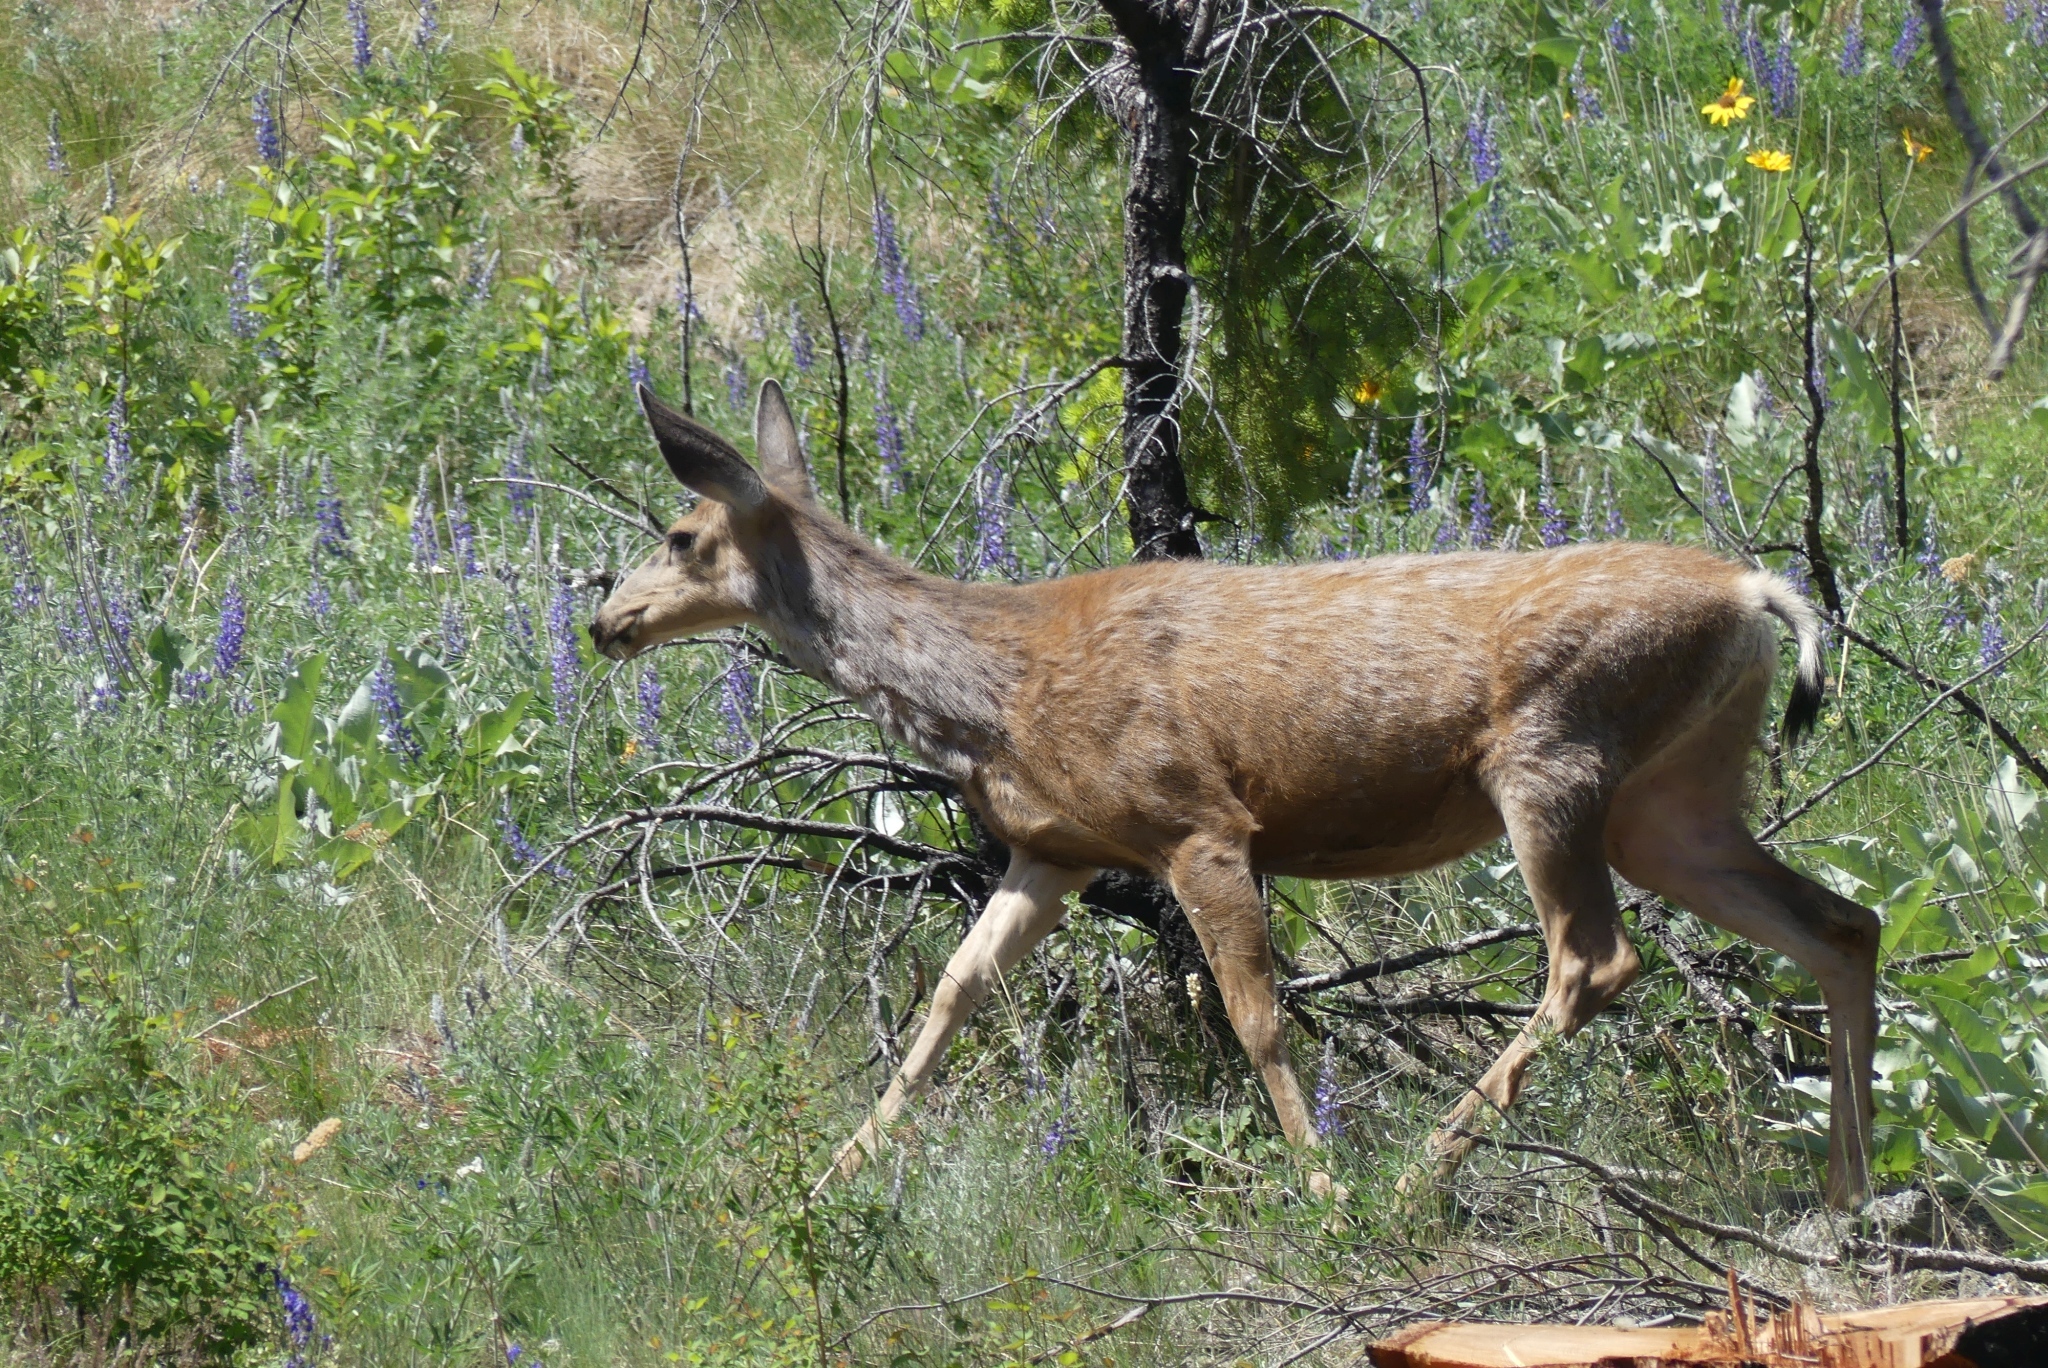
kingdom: Animalia
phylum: Chordata
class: Mammalia
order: Artiodactyla
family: Cervidae
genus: Odocoileus
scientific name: Odocoileus hemionus
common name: Mule deer
